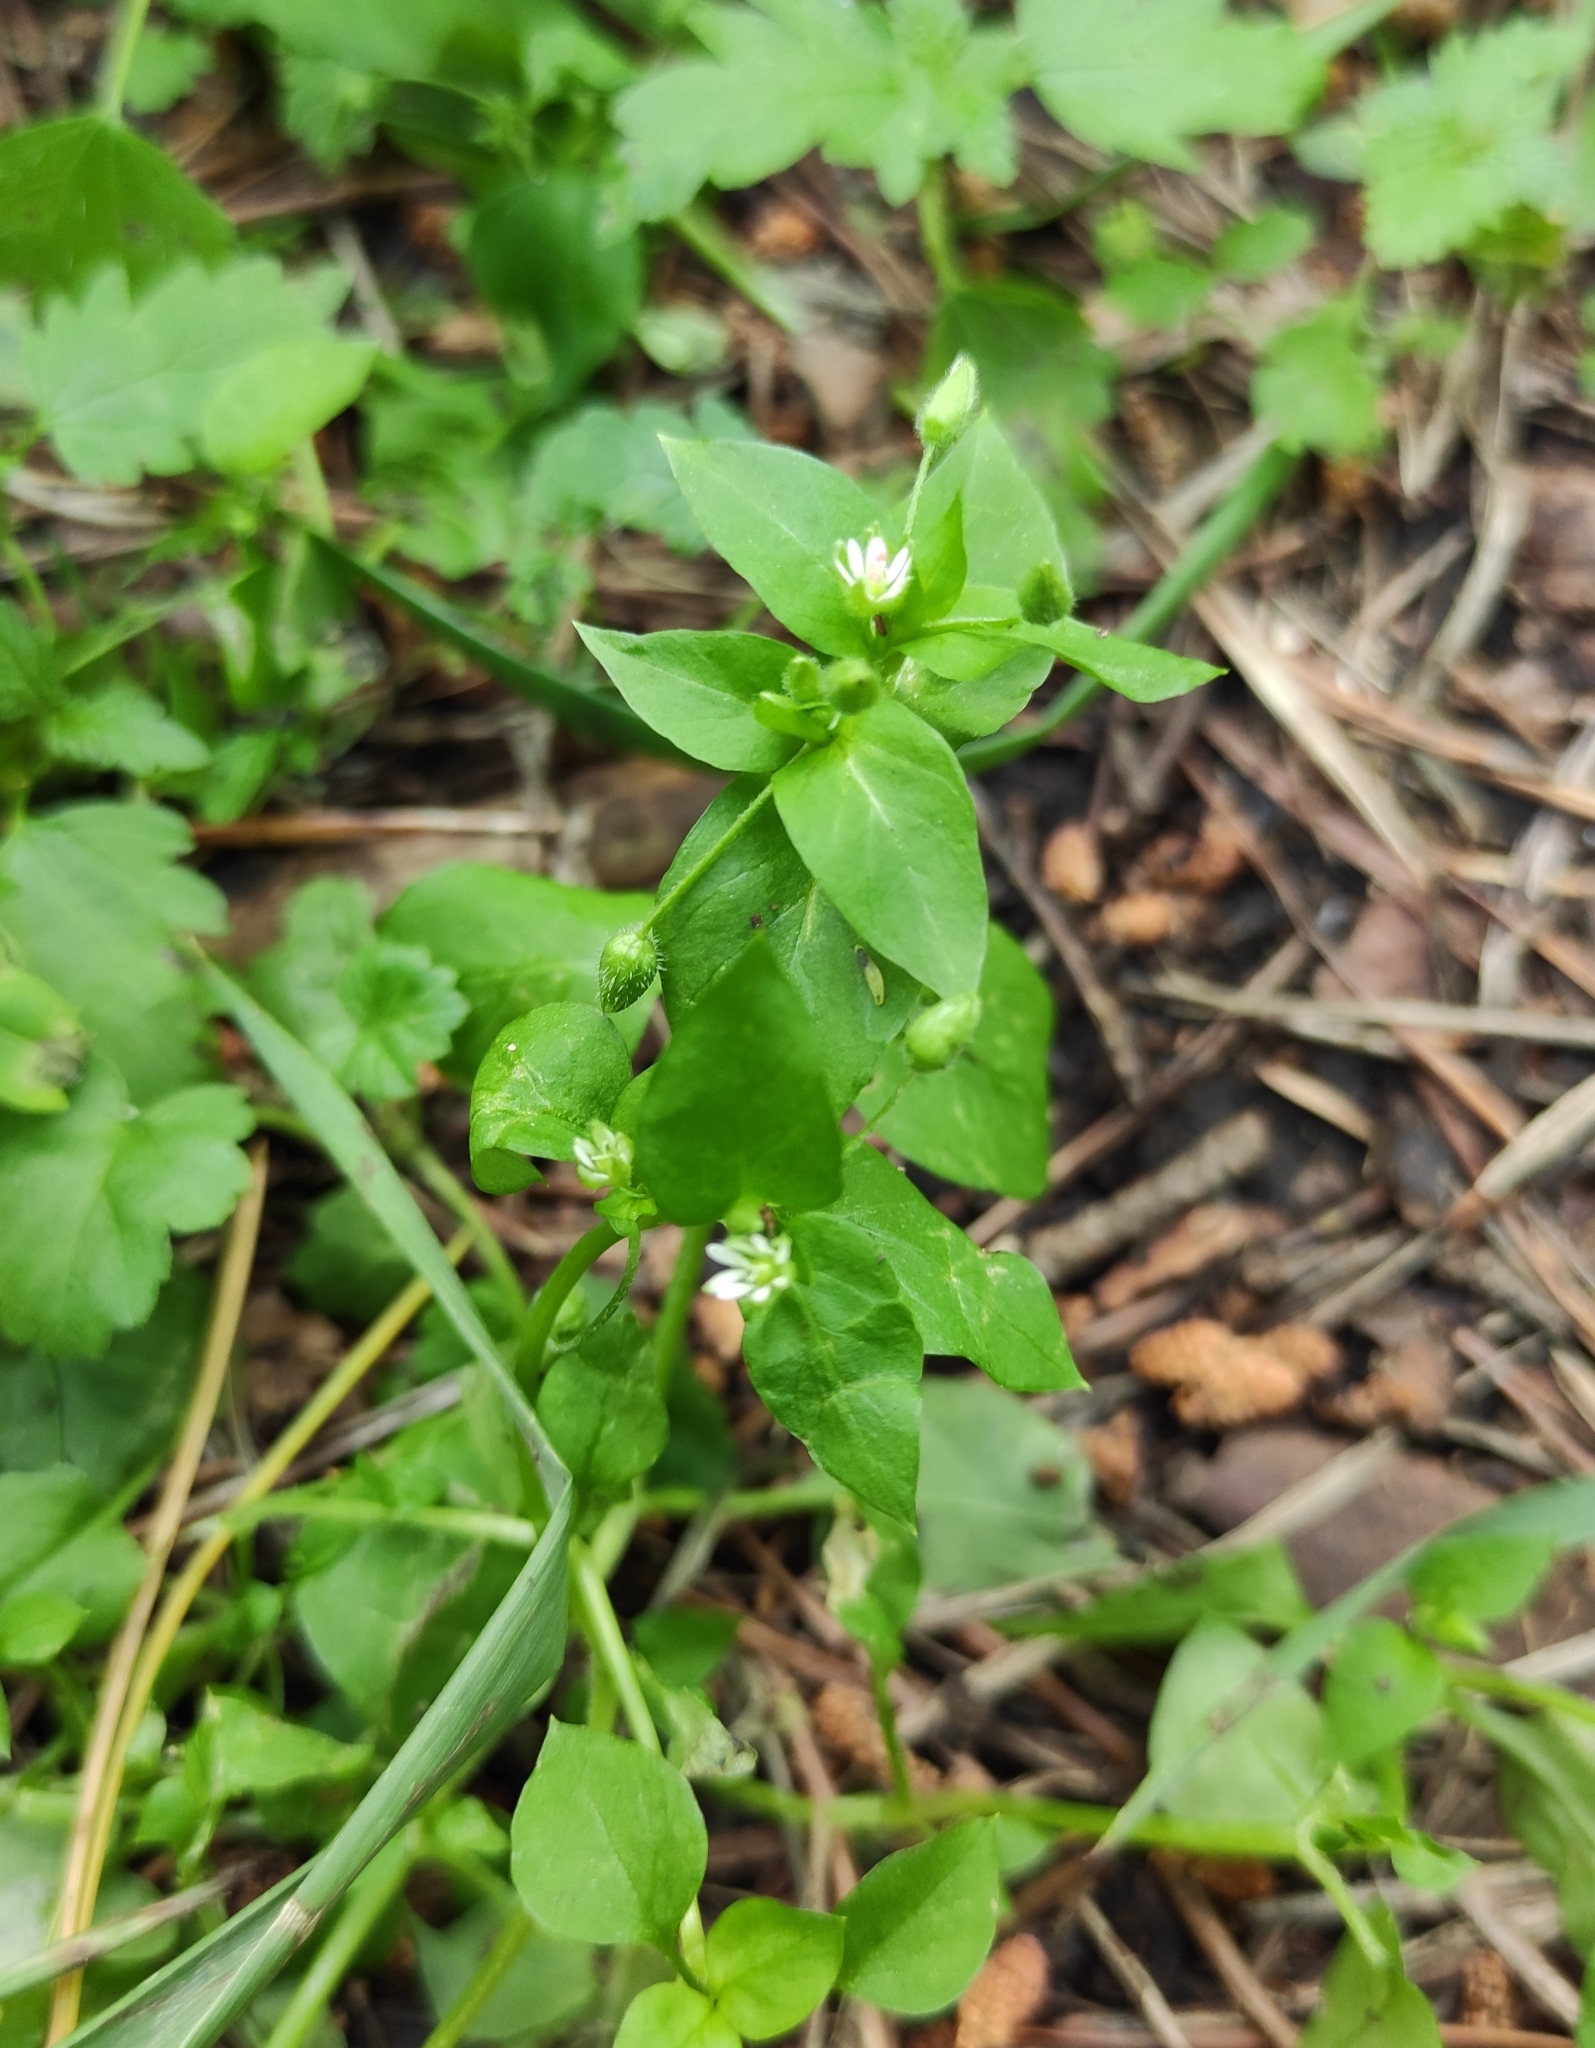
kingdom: Plantae
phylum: Tracheophyta
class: Magnoliopsida
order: Caryophyllales
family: Caryophyllaceae
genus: Stellaria
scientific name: Stellaria media
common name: Common chickweed
